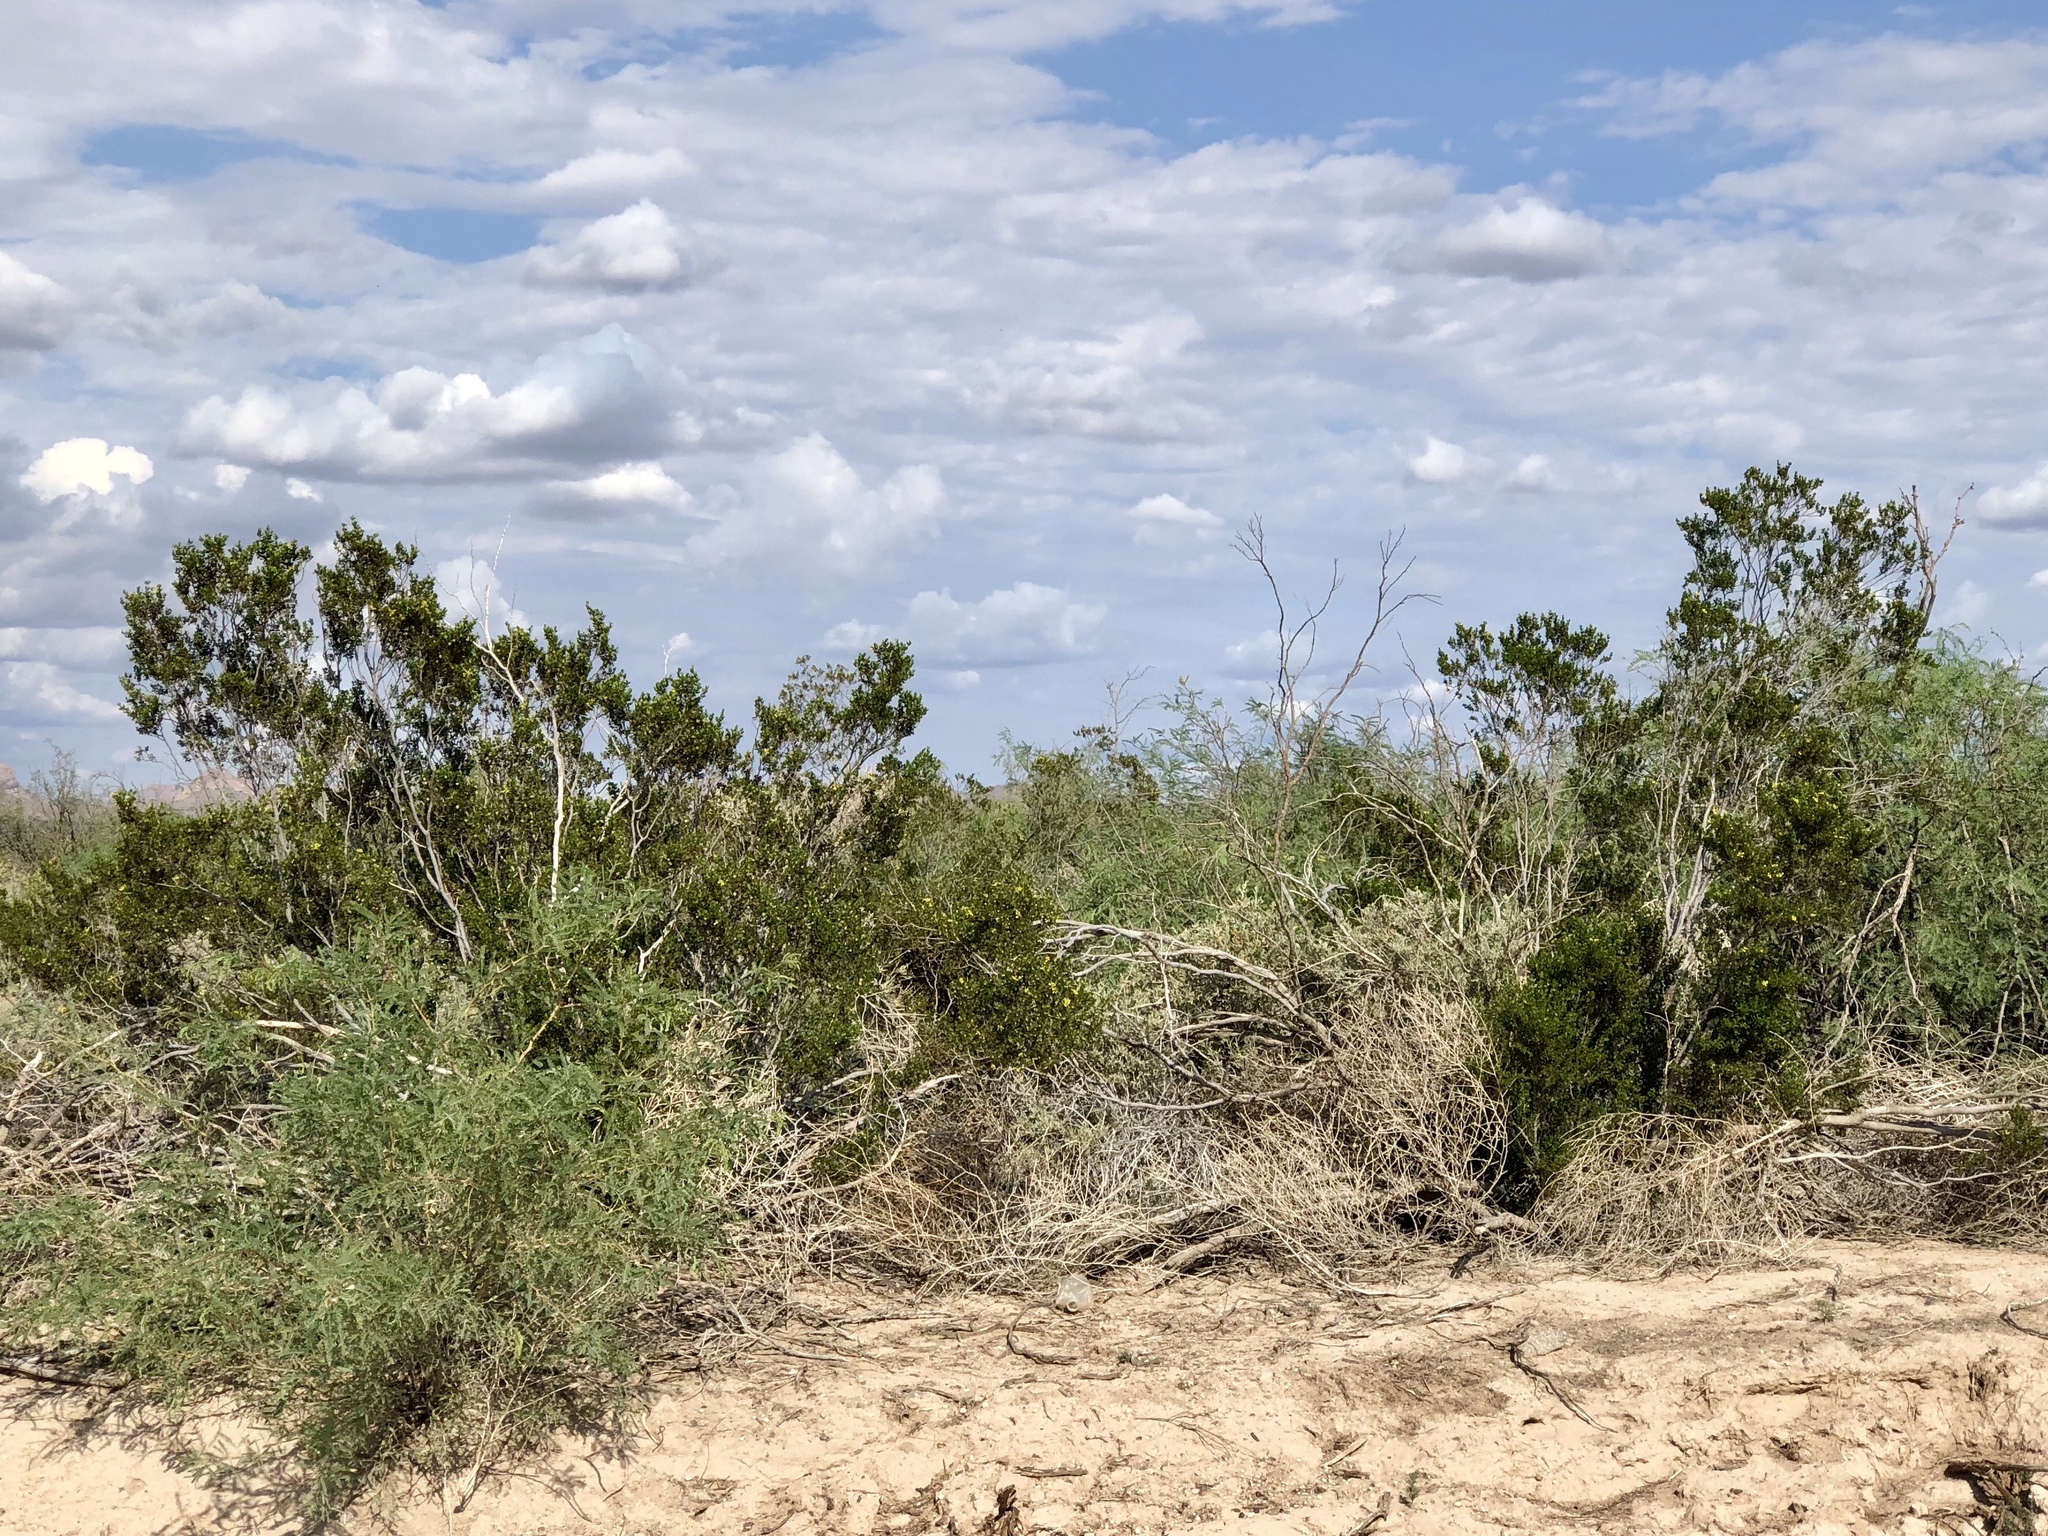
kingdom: Plantae
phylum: Tracheophyta
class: Magnoliopsida
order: Zygophyllales
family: Zygophyllaceae
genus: Larrea
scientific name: Larrea tridentata
